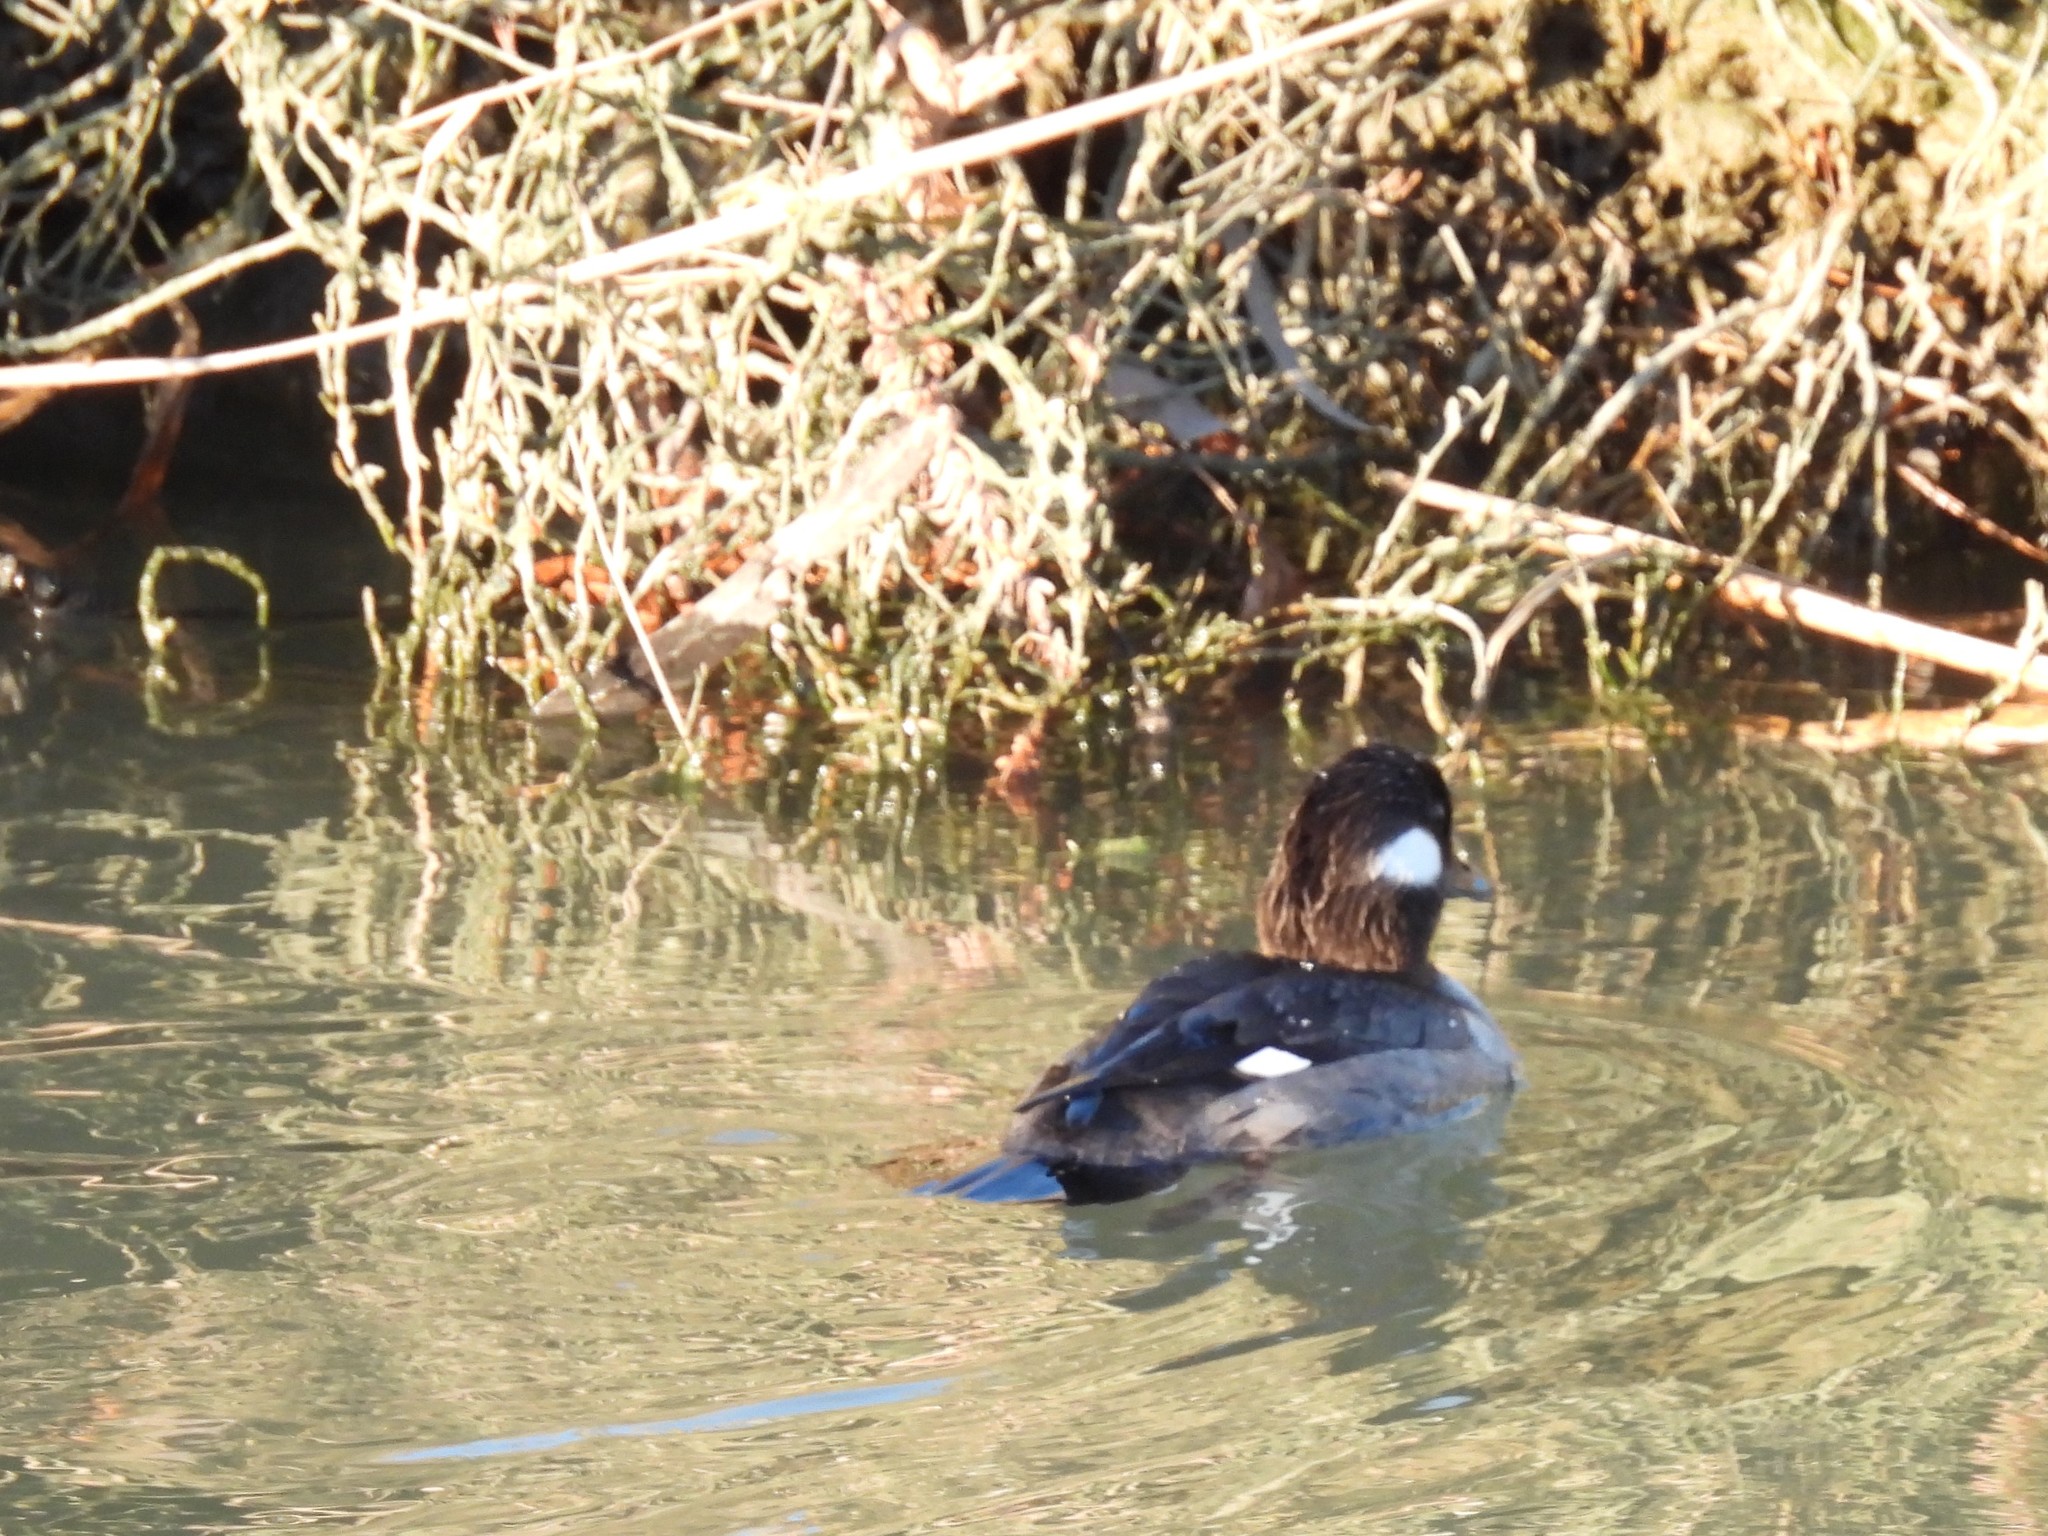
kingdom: Animalia
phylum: Chordata
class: Aves
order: Anseriformes
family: Anatidae
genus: Bucephala
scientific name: Bucephala albeola
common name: Bufflehead
